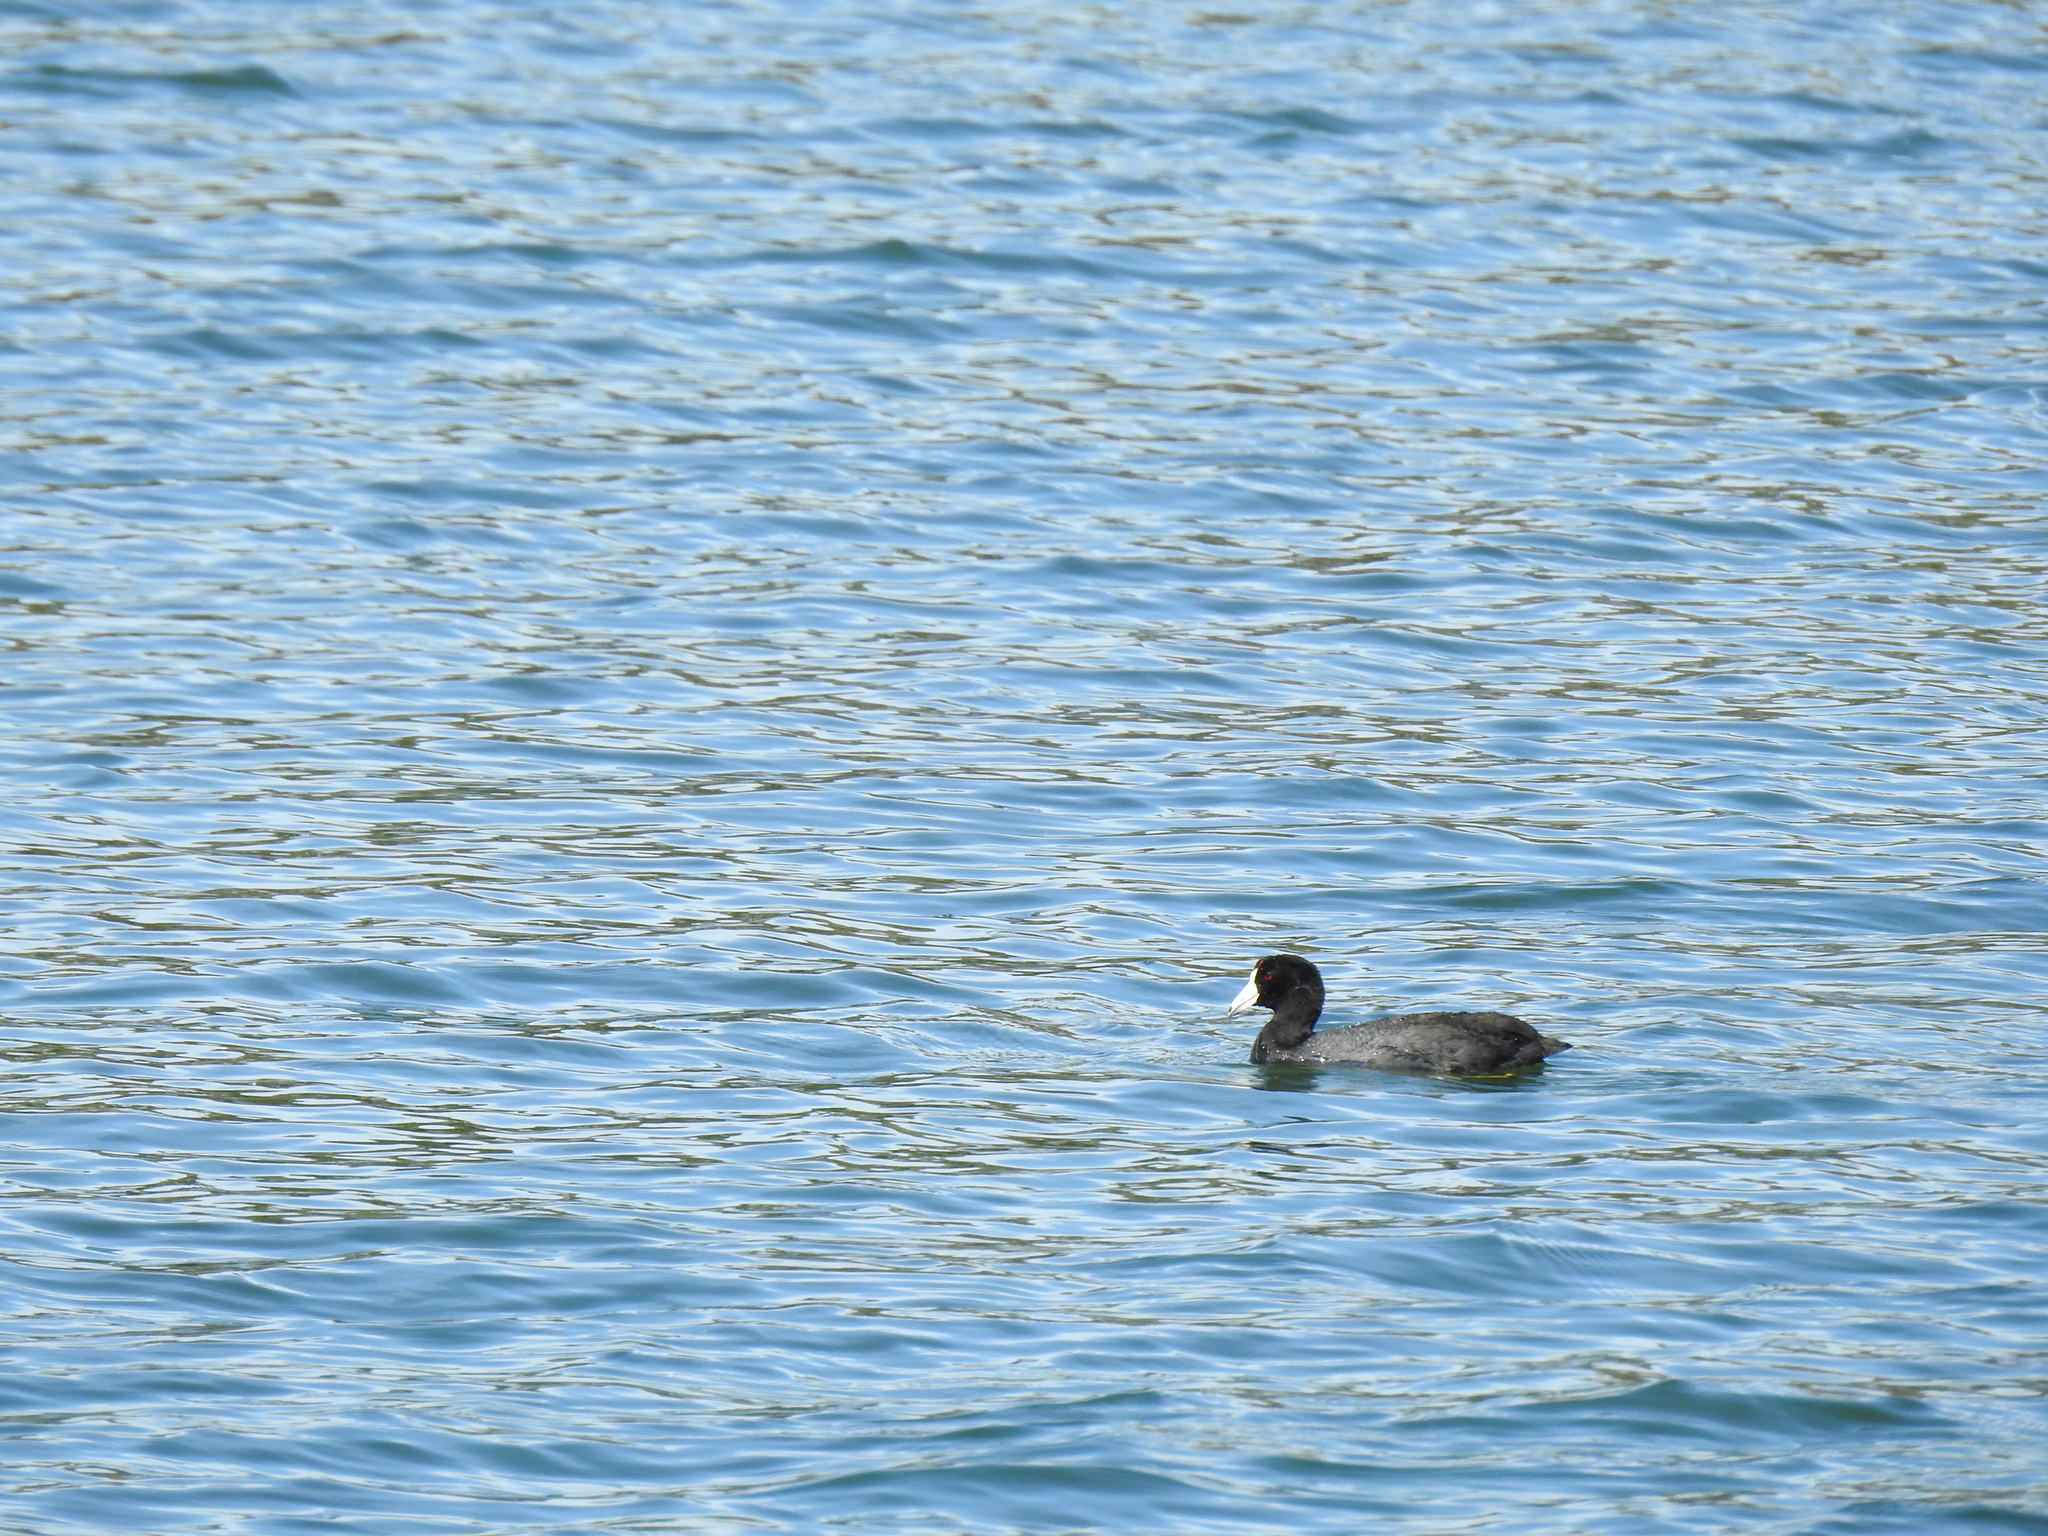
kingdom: Animalia
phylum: Chordata
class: Aves
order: Gruiformes
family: Rallidae
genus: Fulica
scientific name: Fulica americana
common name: American coot
